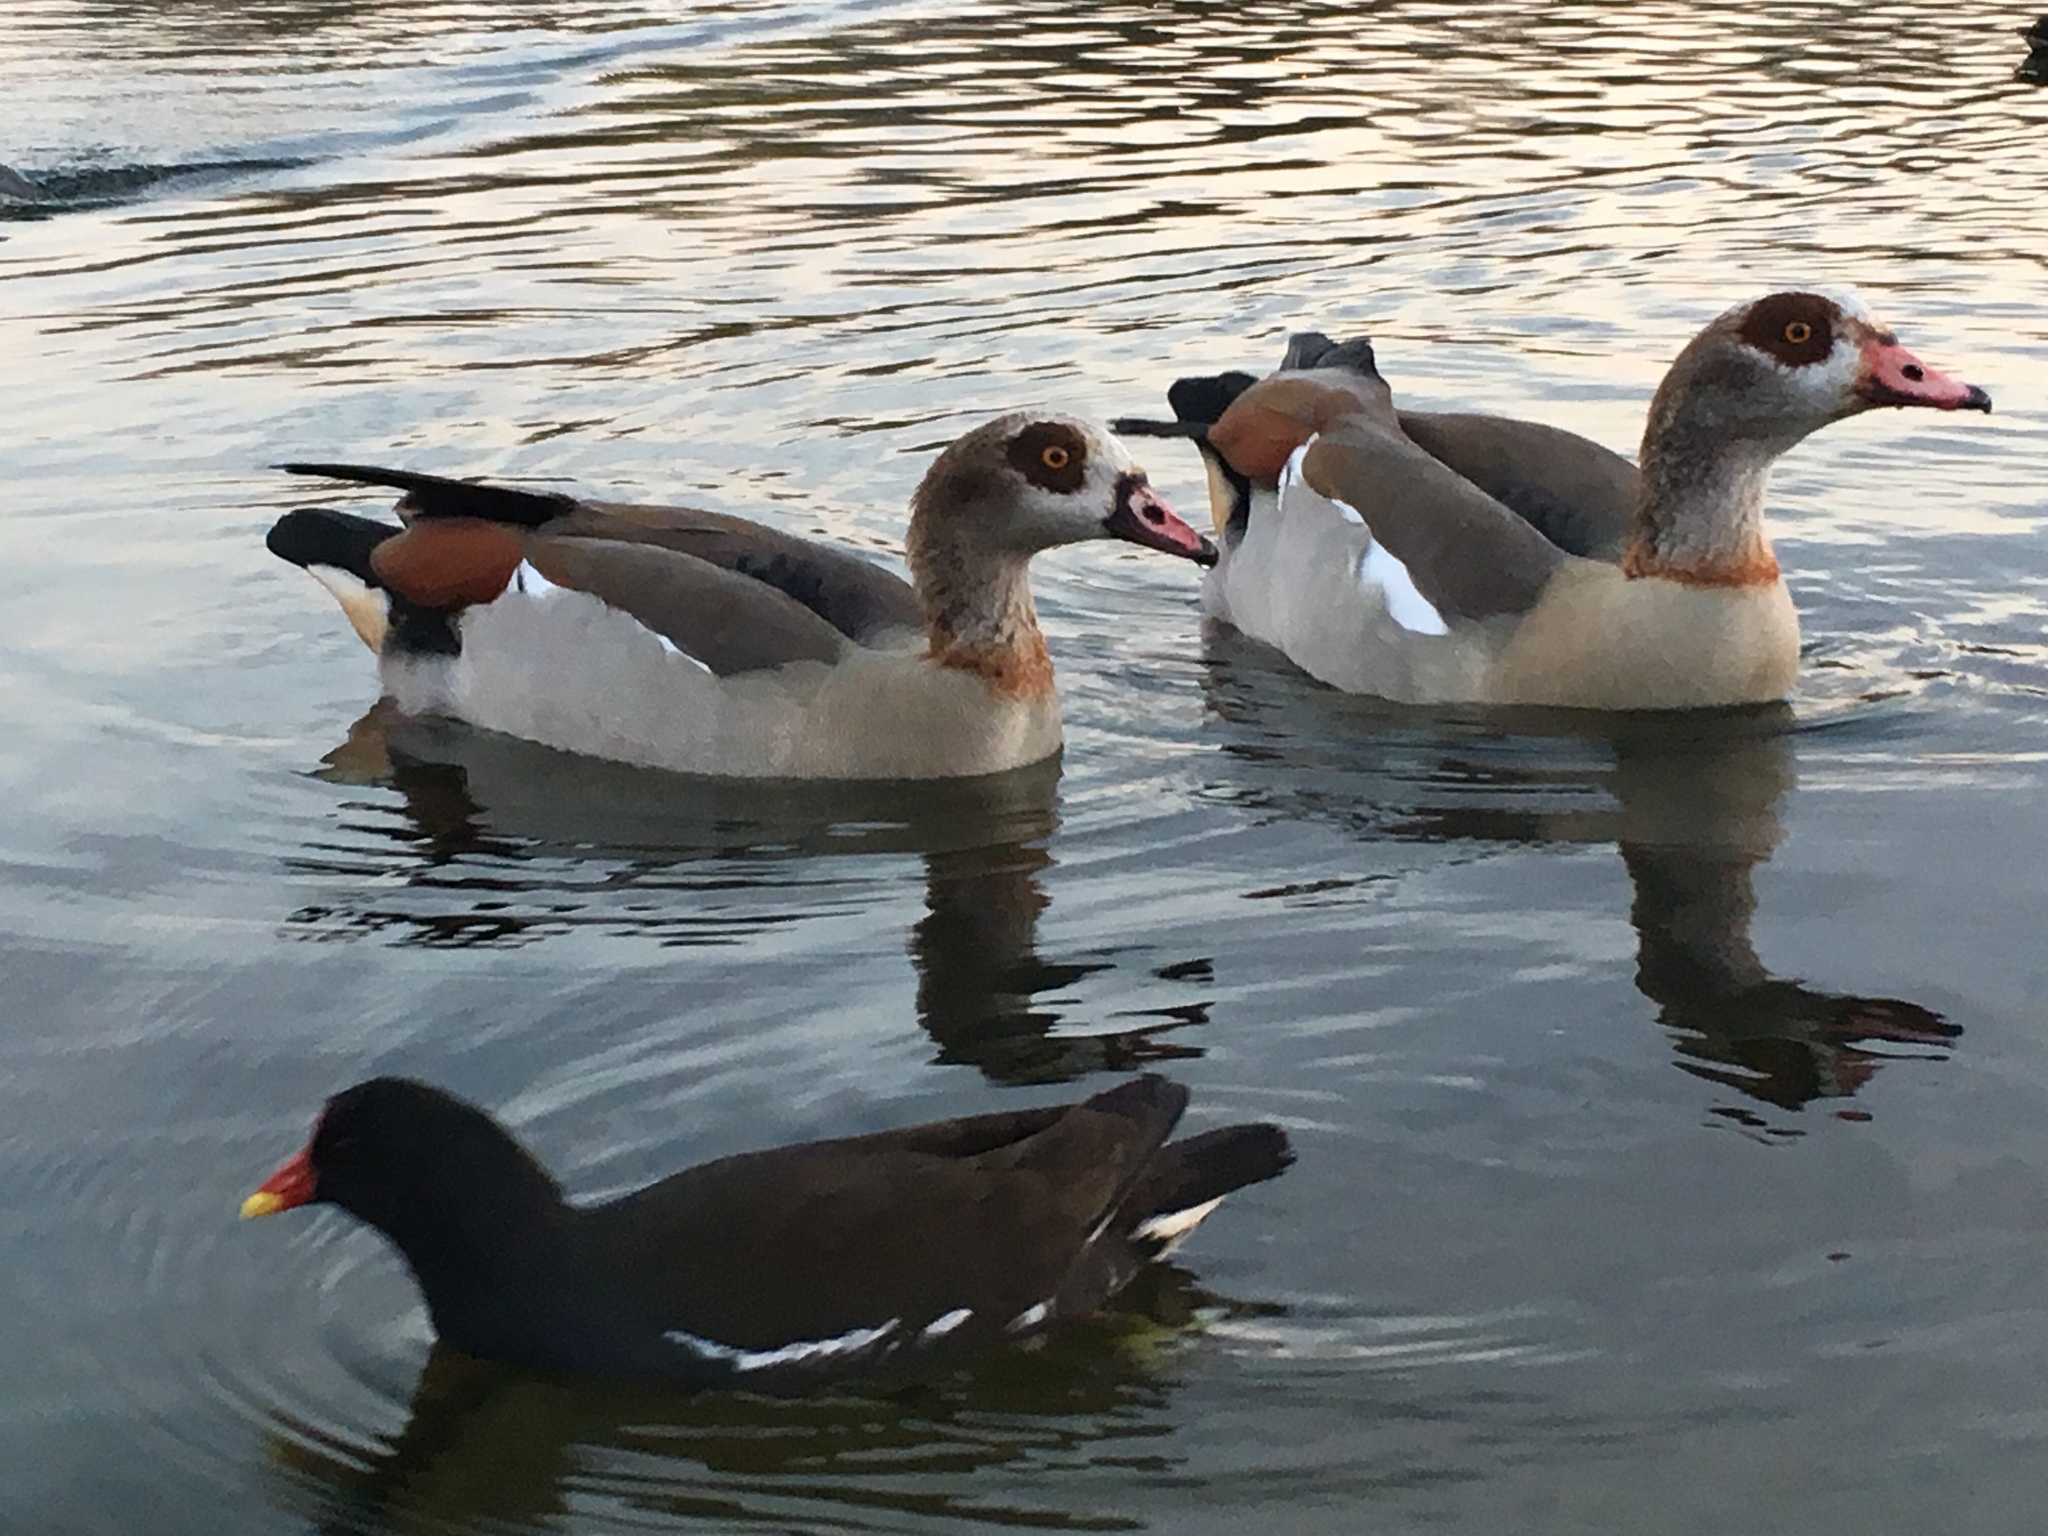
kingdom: Animalia
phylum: Chordata
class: Aves
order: Anseriformes
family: Anatidae
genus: Alopochen
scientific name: Alopochen aegyptiaca
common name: Egyptian goose
